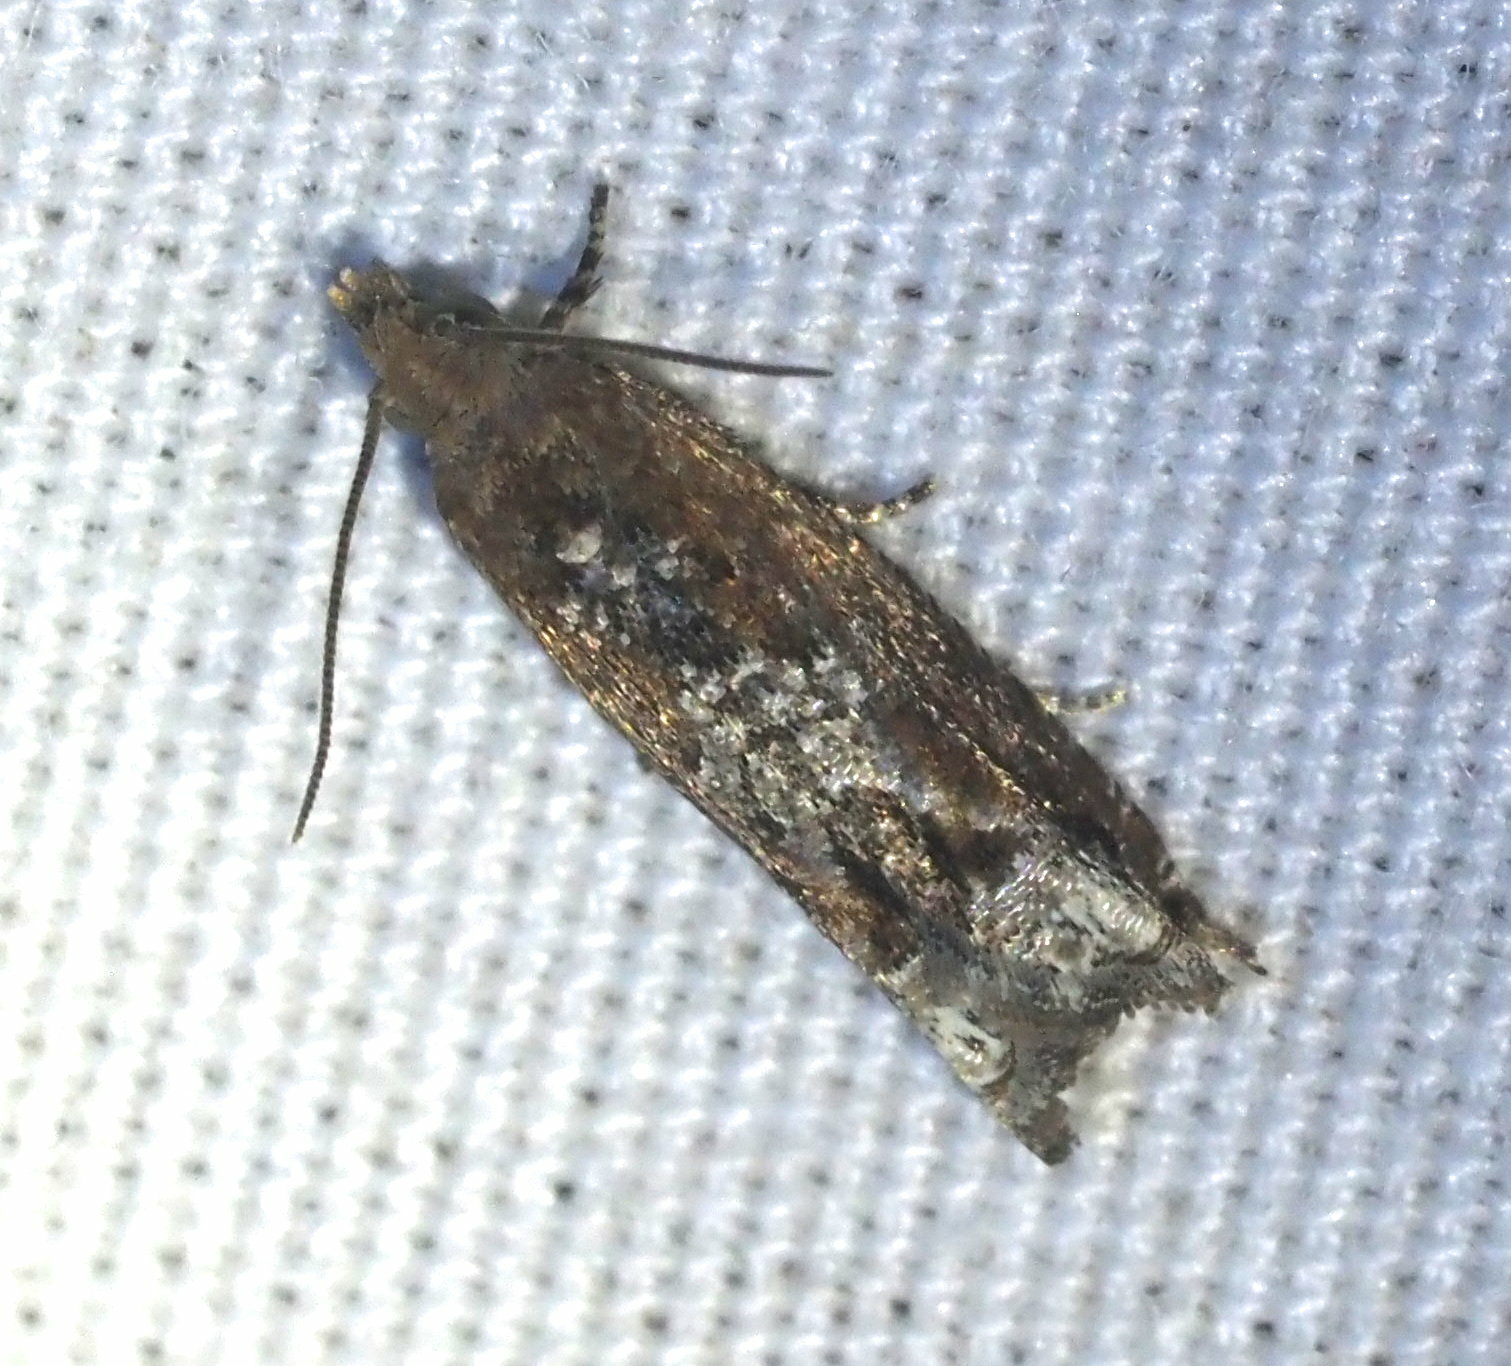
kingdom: Animalia
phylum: Arthropoda
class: Insecta
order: Lepidoptera
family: Tortricidae
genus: Crocidosema
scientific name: Crocidosema lantana
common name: Lantana flower-cluster moth
